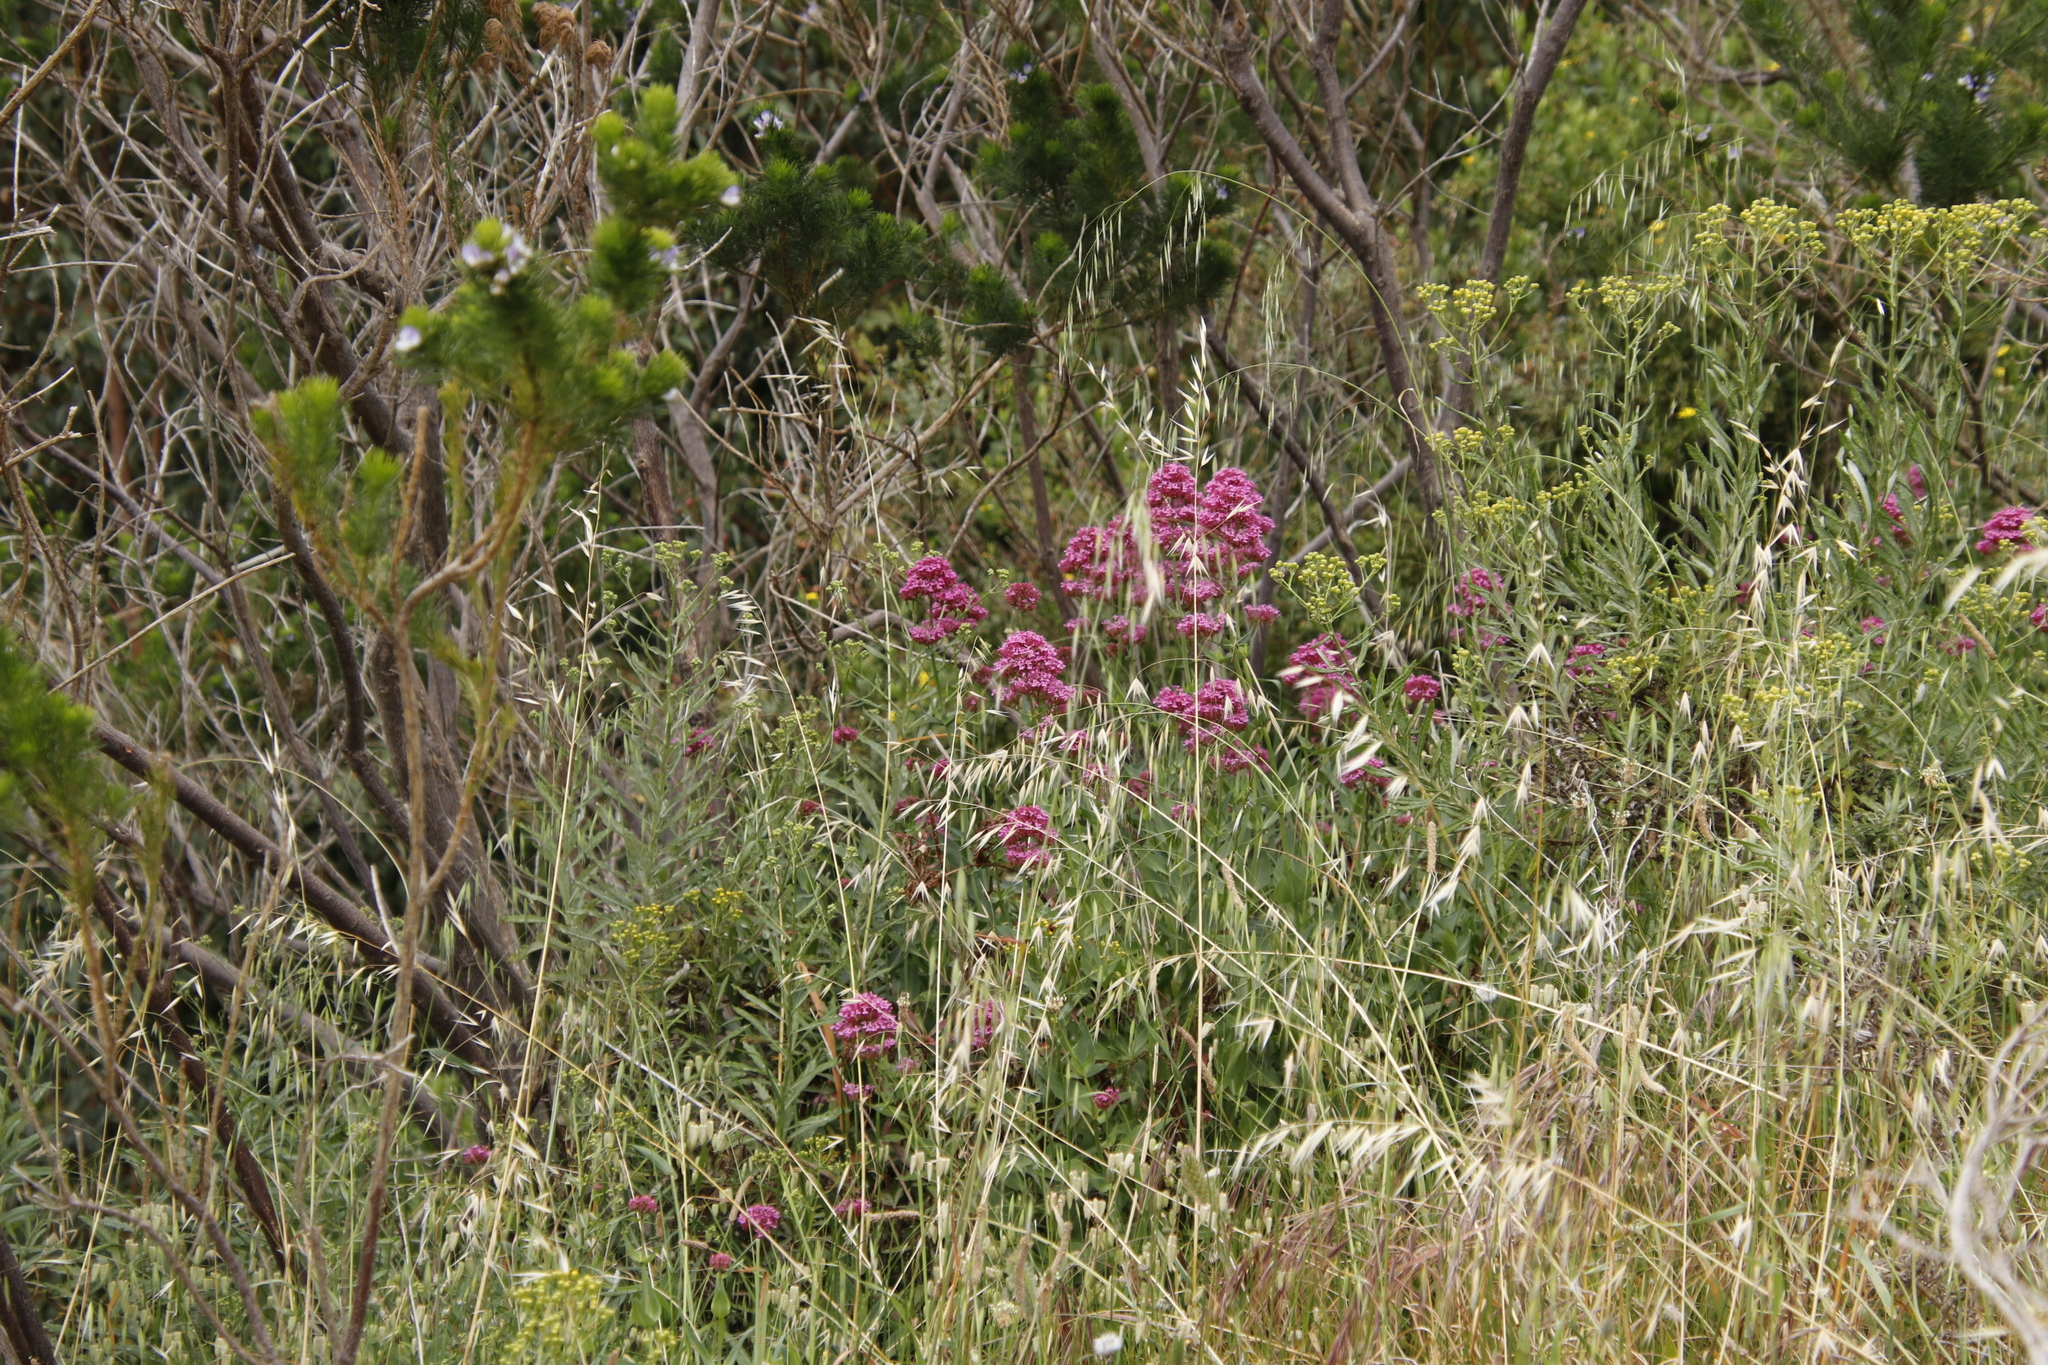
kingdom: Plantae
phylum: Tracheophyta
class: Magnoliopsida
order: Dipsacales
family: Caprifoliaceae
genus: Centranthus
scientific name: Centranthus ruber
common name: Red valerian
